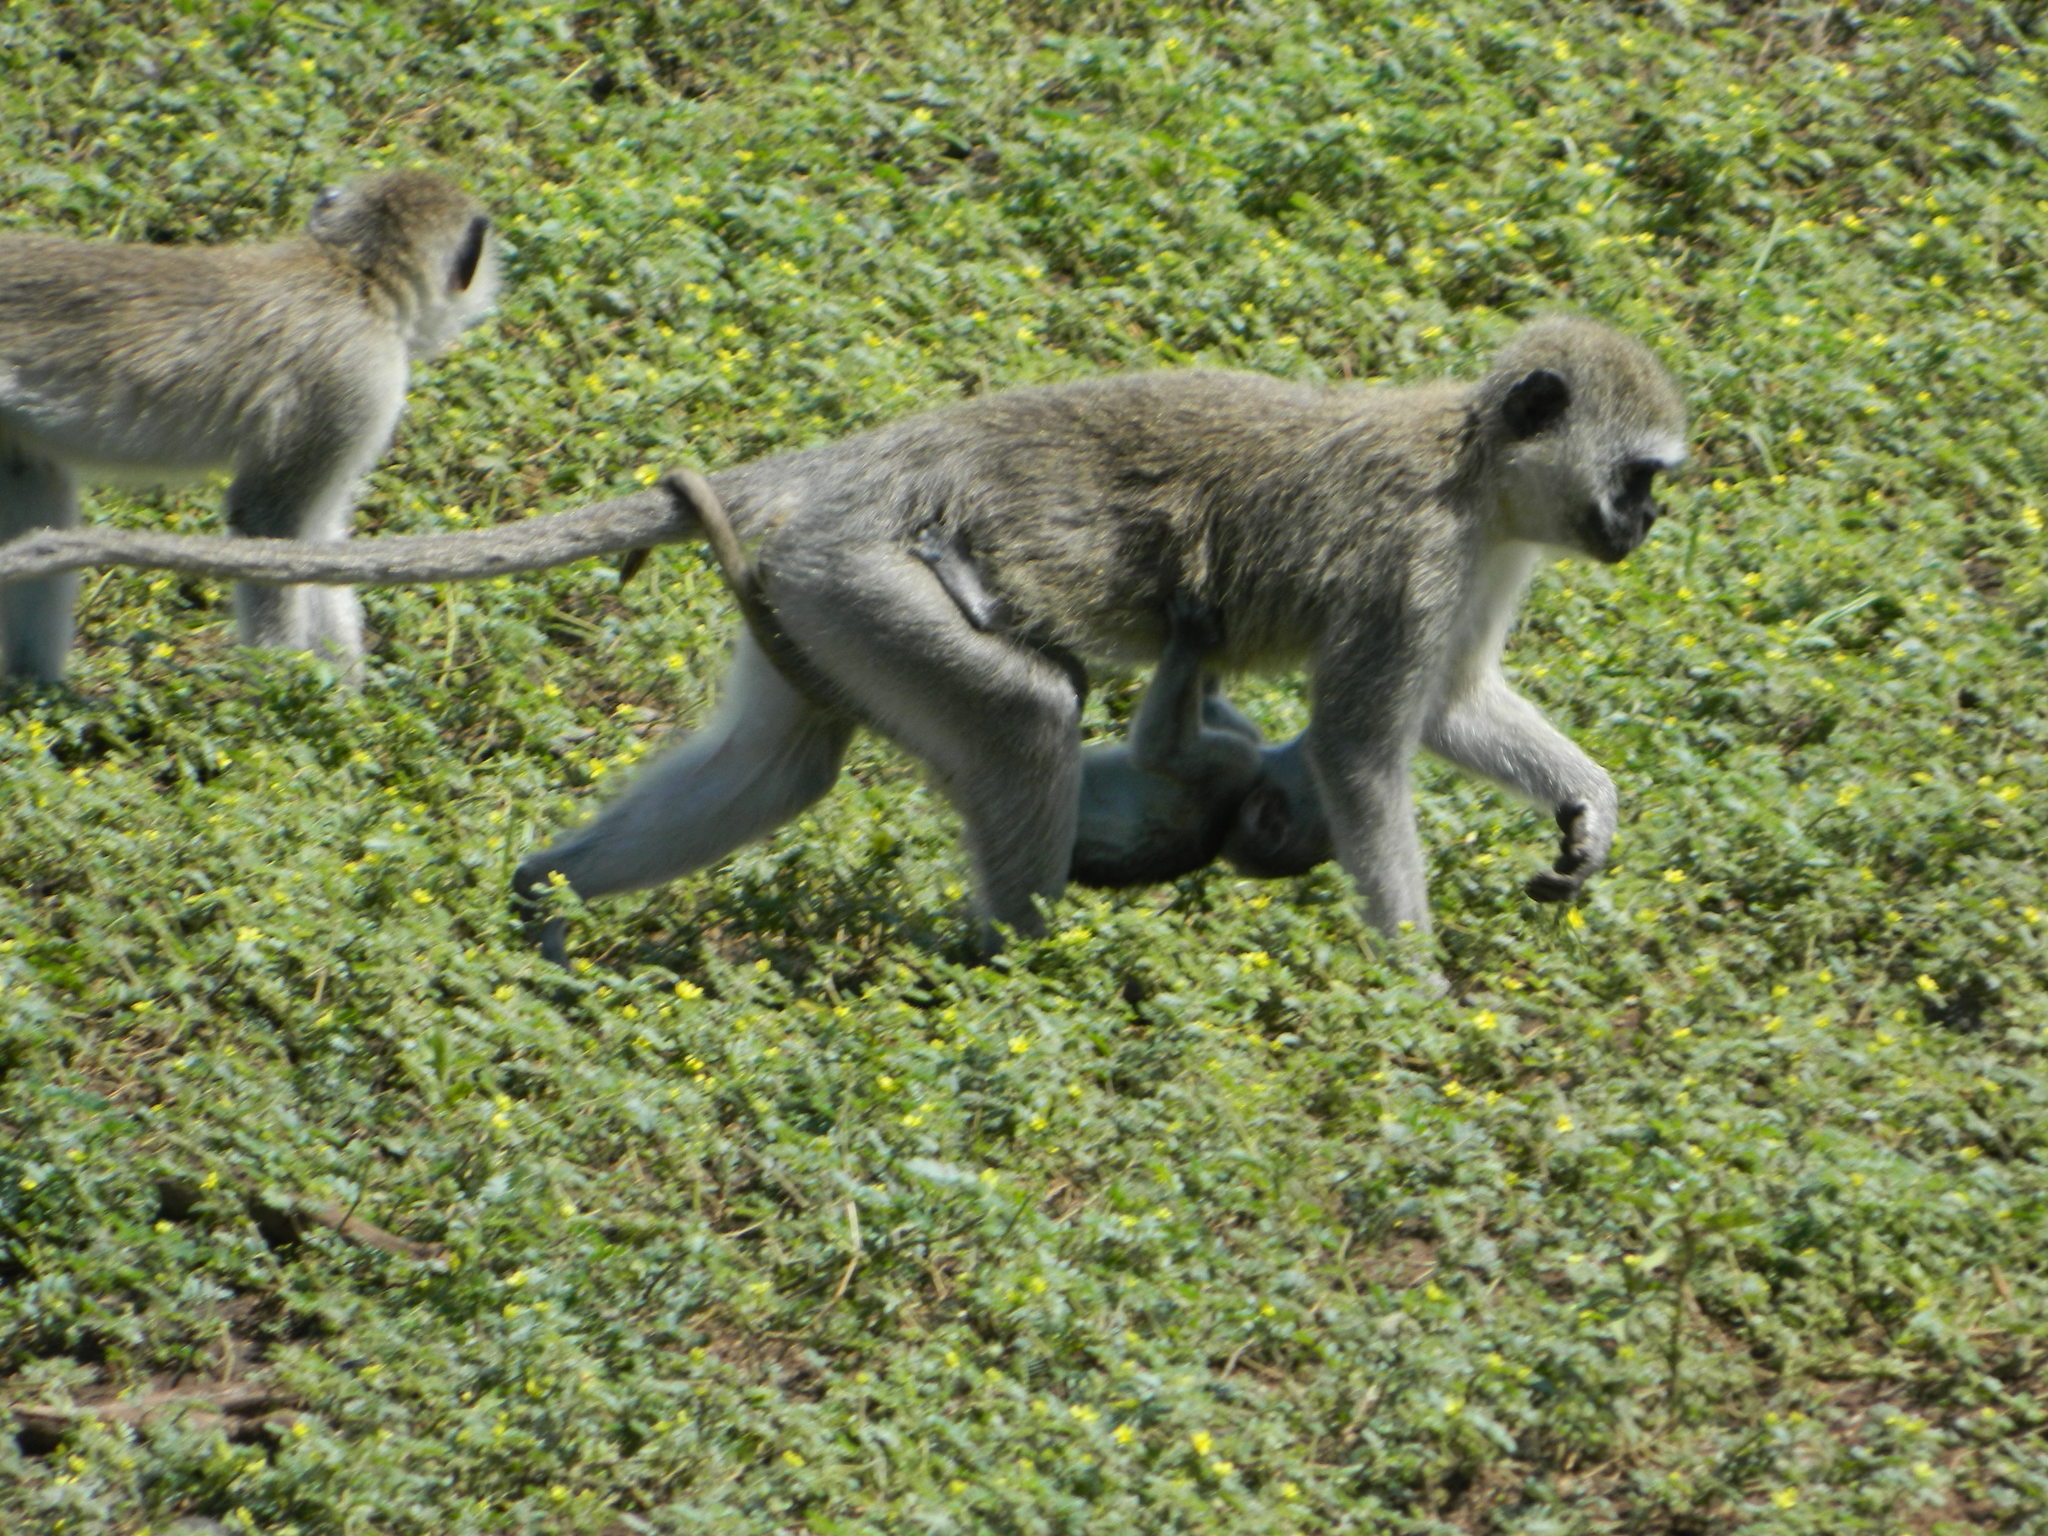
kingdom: Animalia
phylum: Chordata
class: Mammalia
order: Primates
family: Cercopithecidae
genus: Chlorocebus
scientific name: Chlorocebus pygerythrus
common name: Vervet monkey
